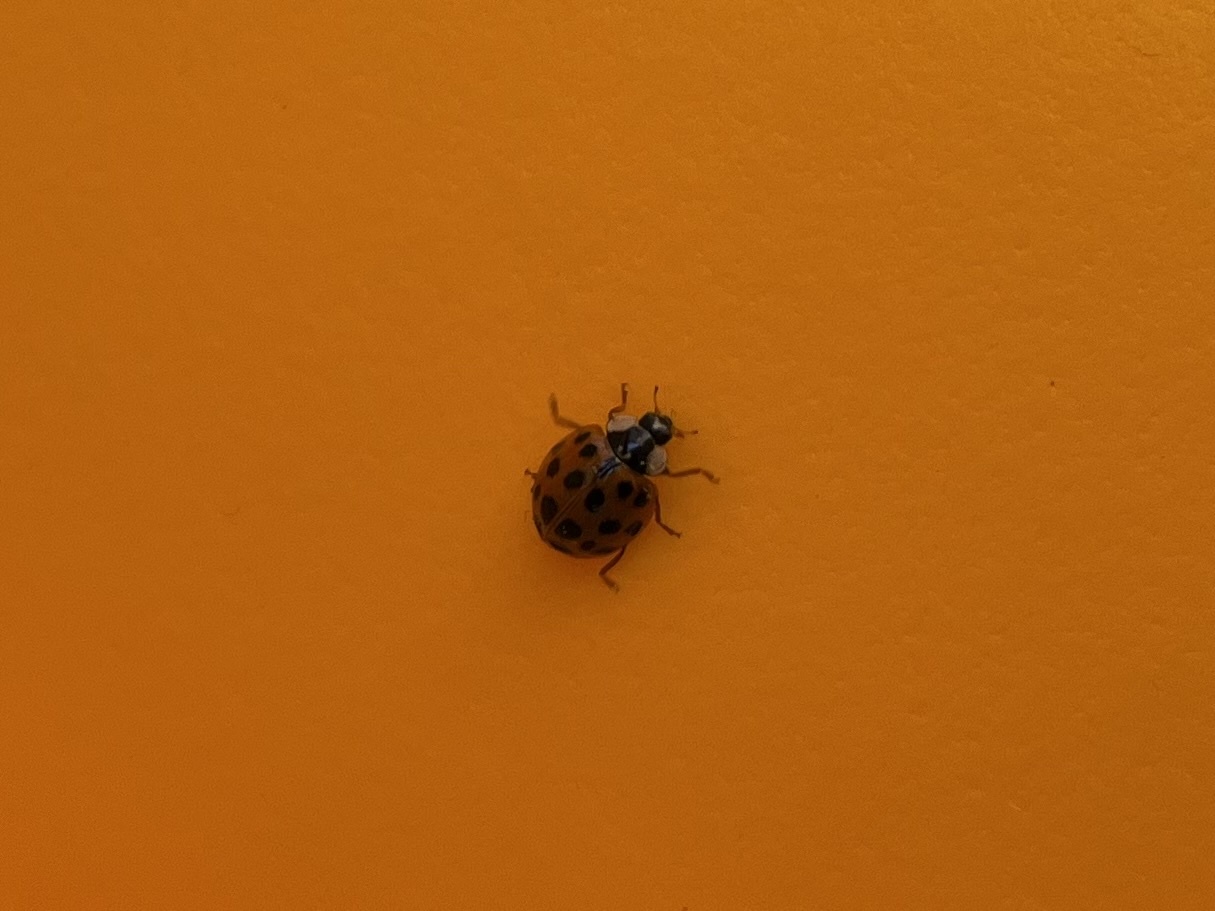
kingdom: Animalia
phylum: Arthropoda
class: Insecta
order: Coleoptera
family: Coccinellidae
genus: Harmonia
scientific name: Harmonia axyridis
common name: Harlequin ladybird
